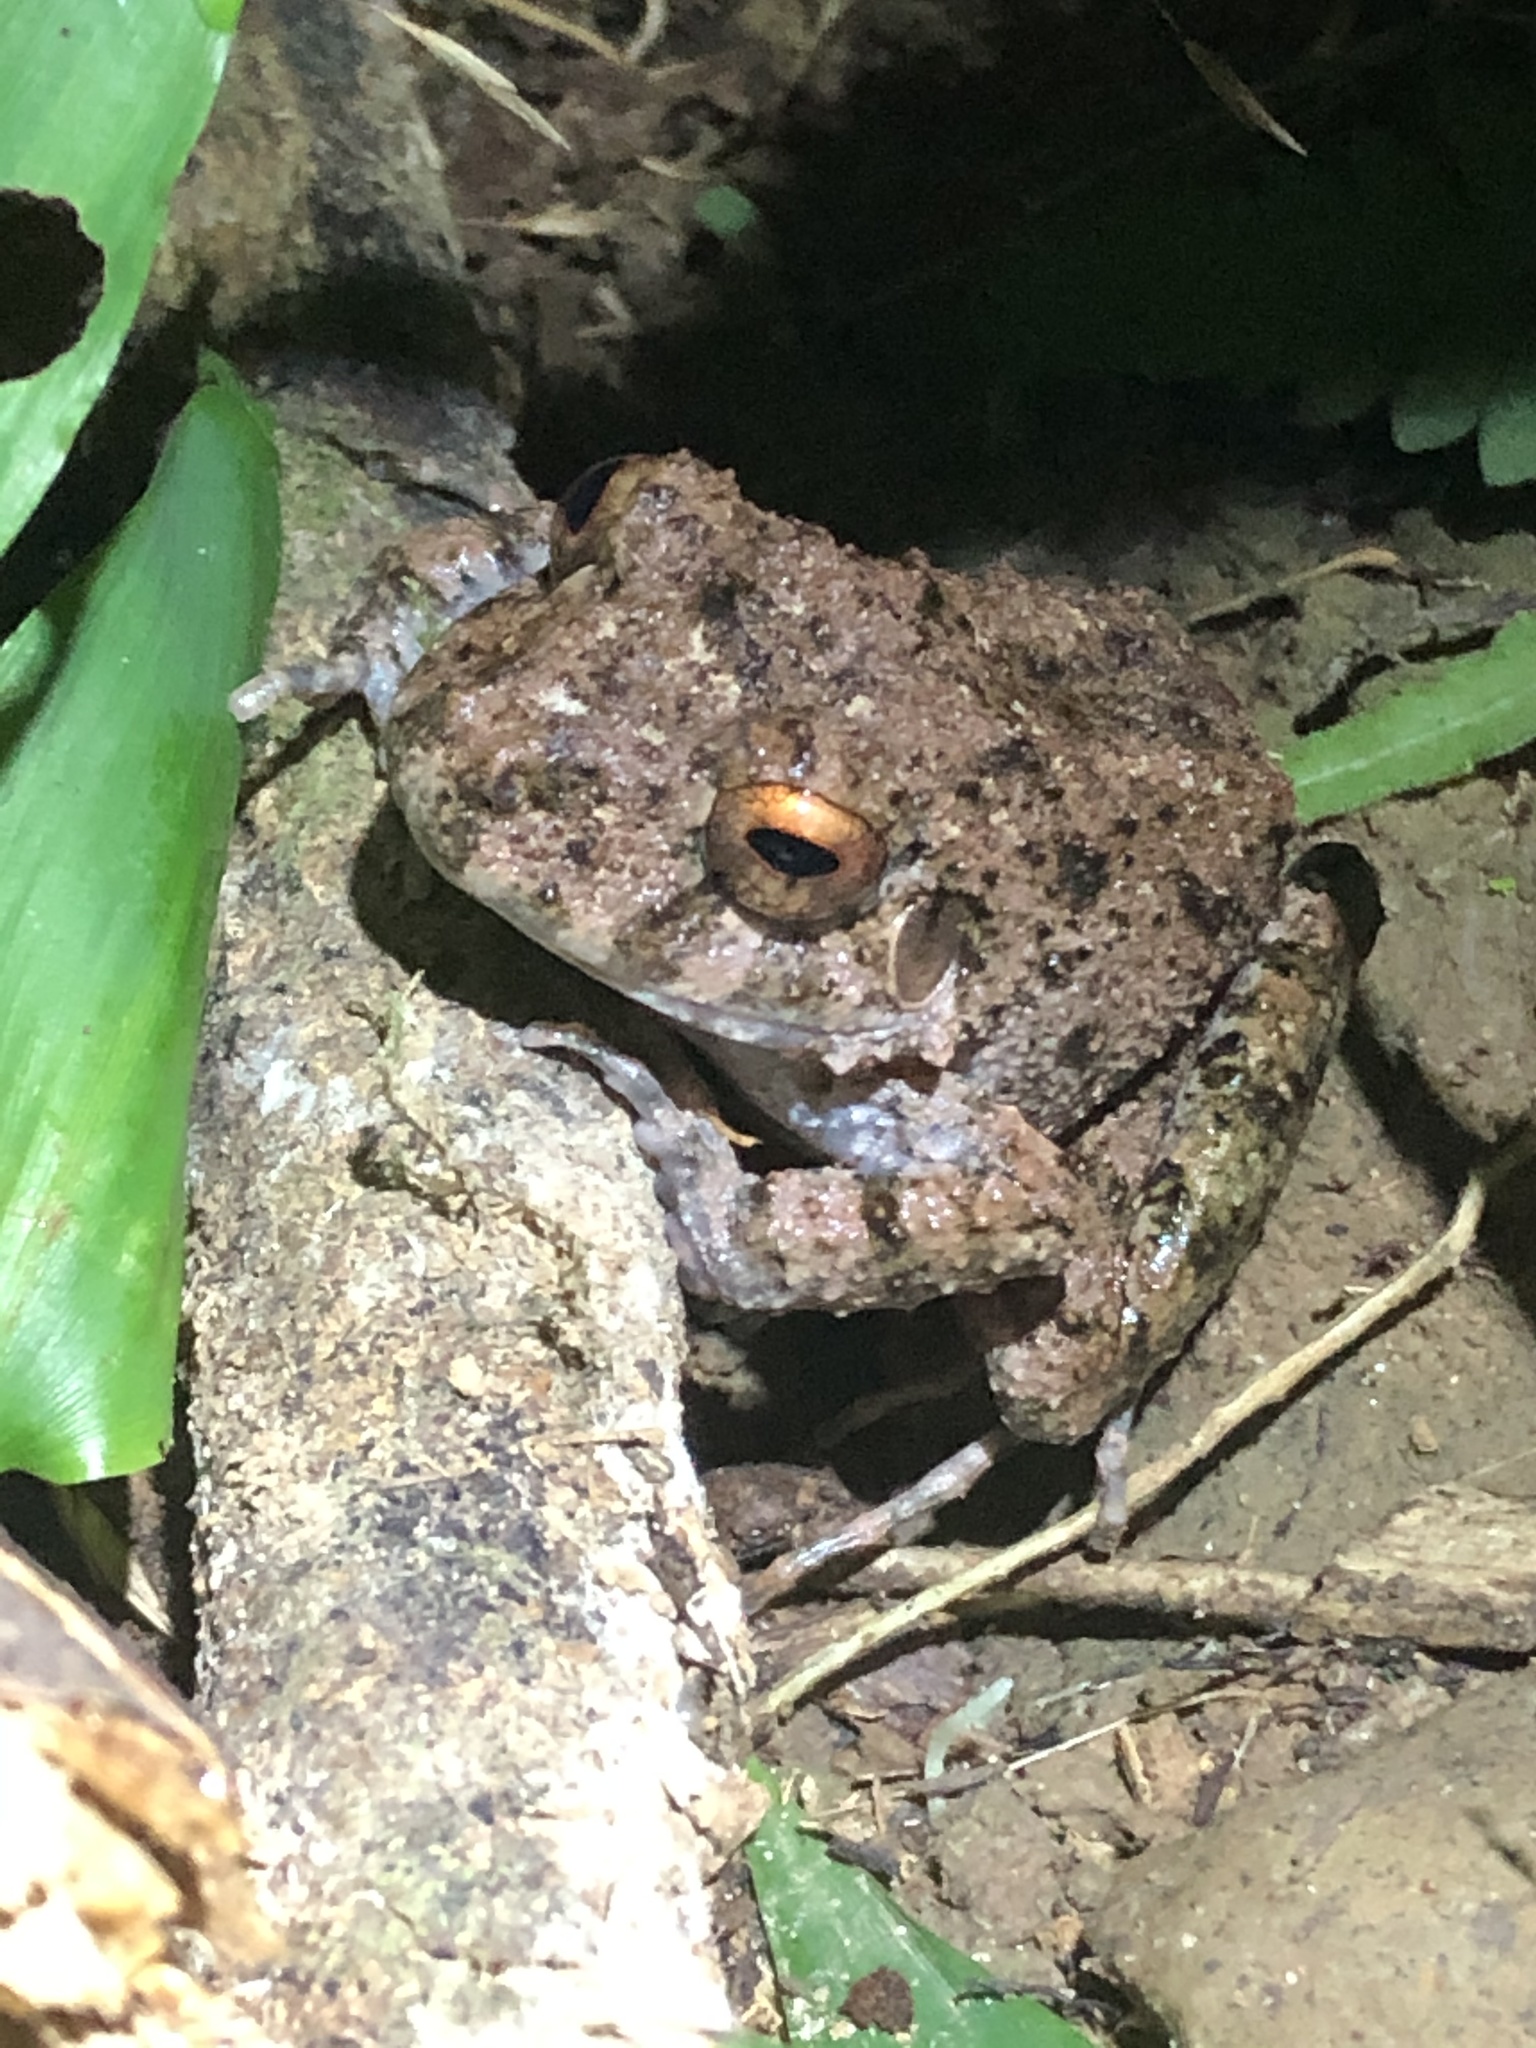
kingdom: Animalia
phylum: Chordata
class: Amphibia
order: Anura
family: Craugastoridae
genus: Oreobates
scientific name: Oreobates quixensis
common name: Common big-headed frog
